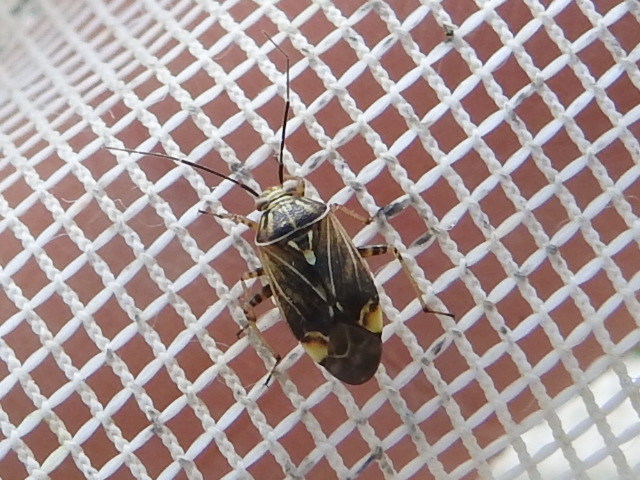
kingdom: Animalia
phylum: Arthropoda
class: Insecta
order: Hemiptera
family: Miridae
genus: Lygus
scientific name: Lygus lineolaris
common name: North american tarnished plant bug
